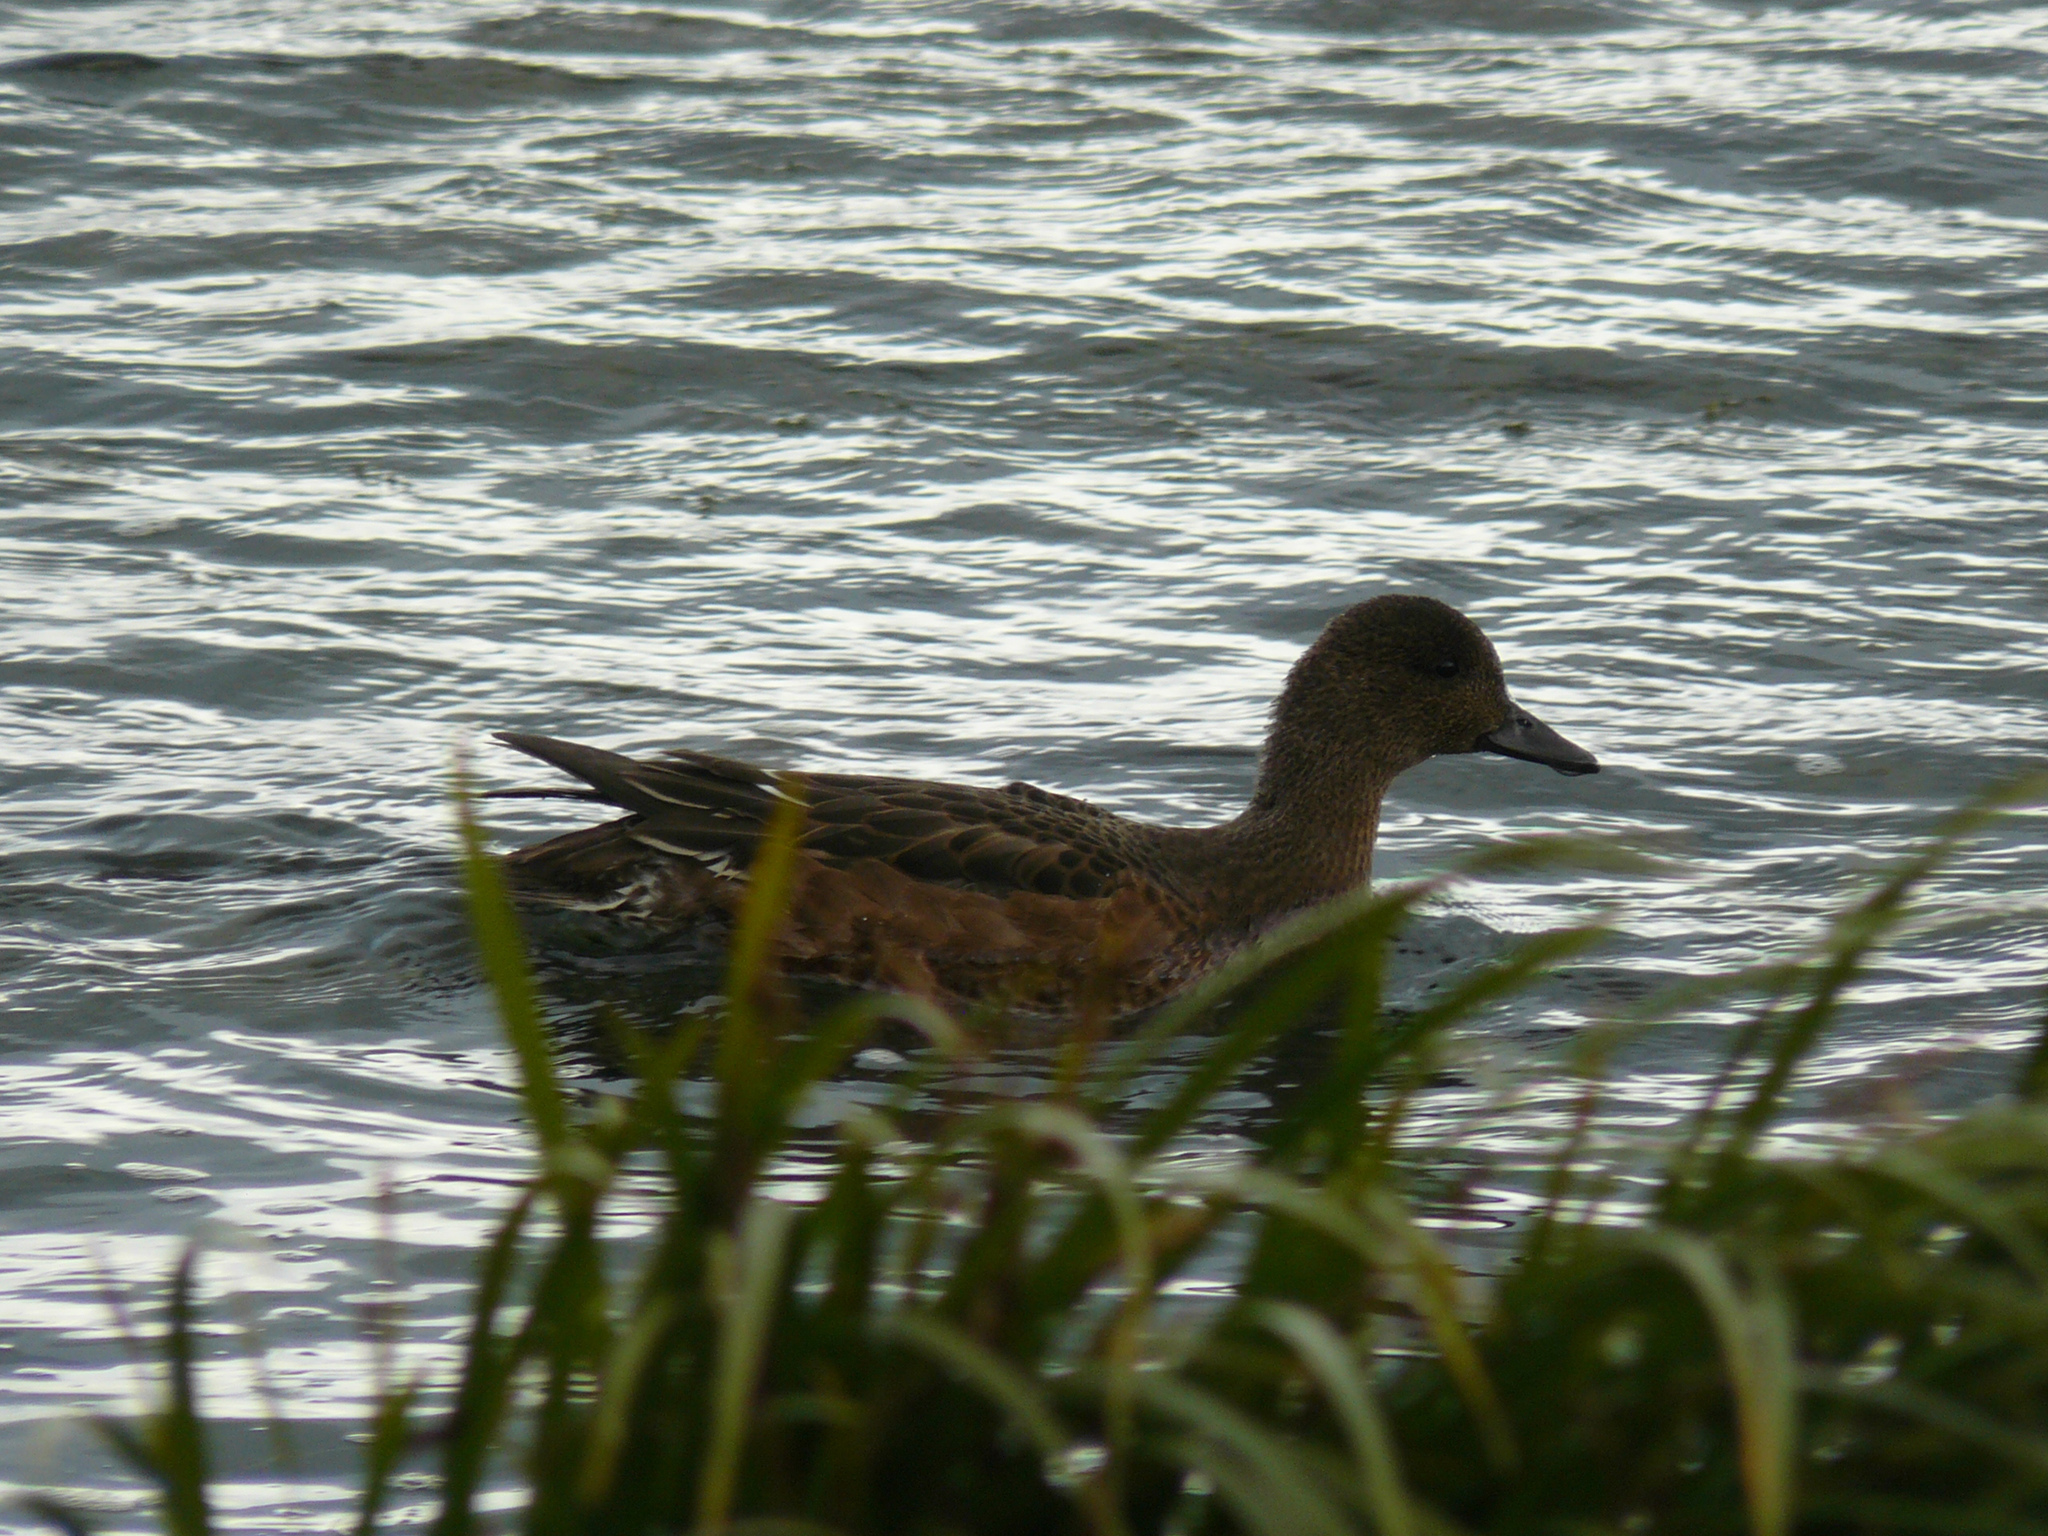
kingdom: Animalia
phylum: Chordata
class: Aves
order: Anseriformes
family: Anatidae
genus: Mareca
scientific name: Mareca penelope
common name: Eurasian wigeon
